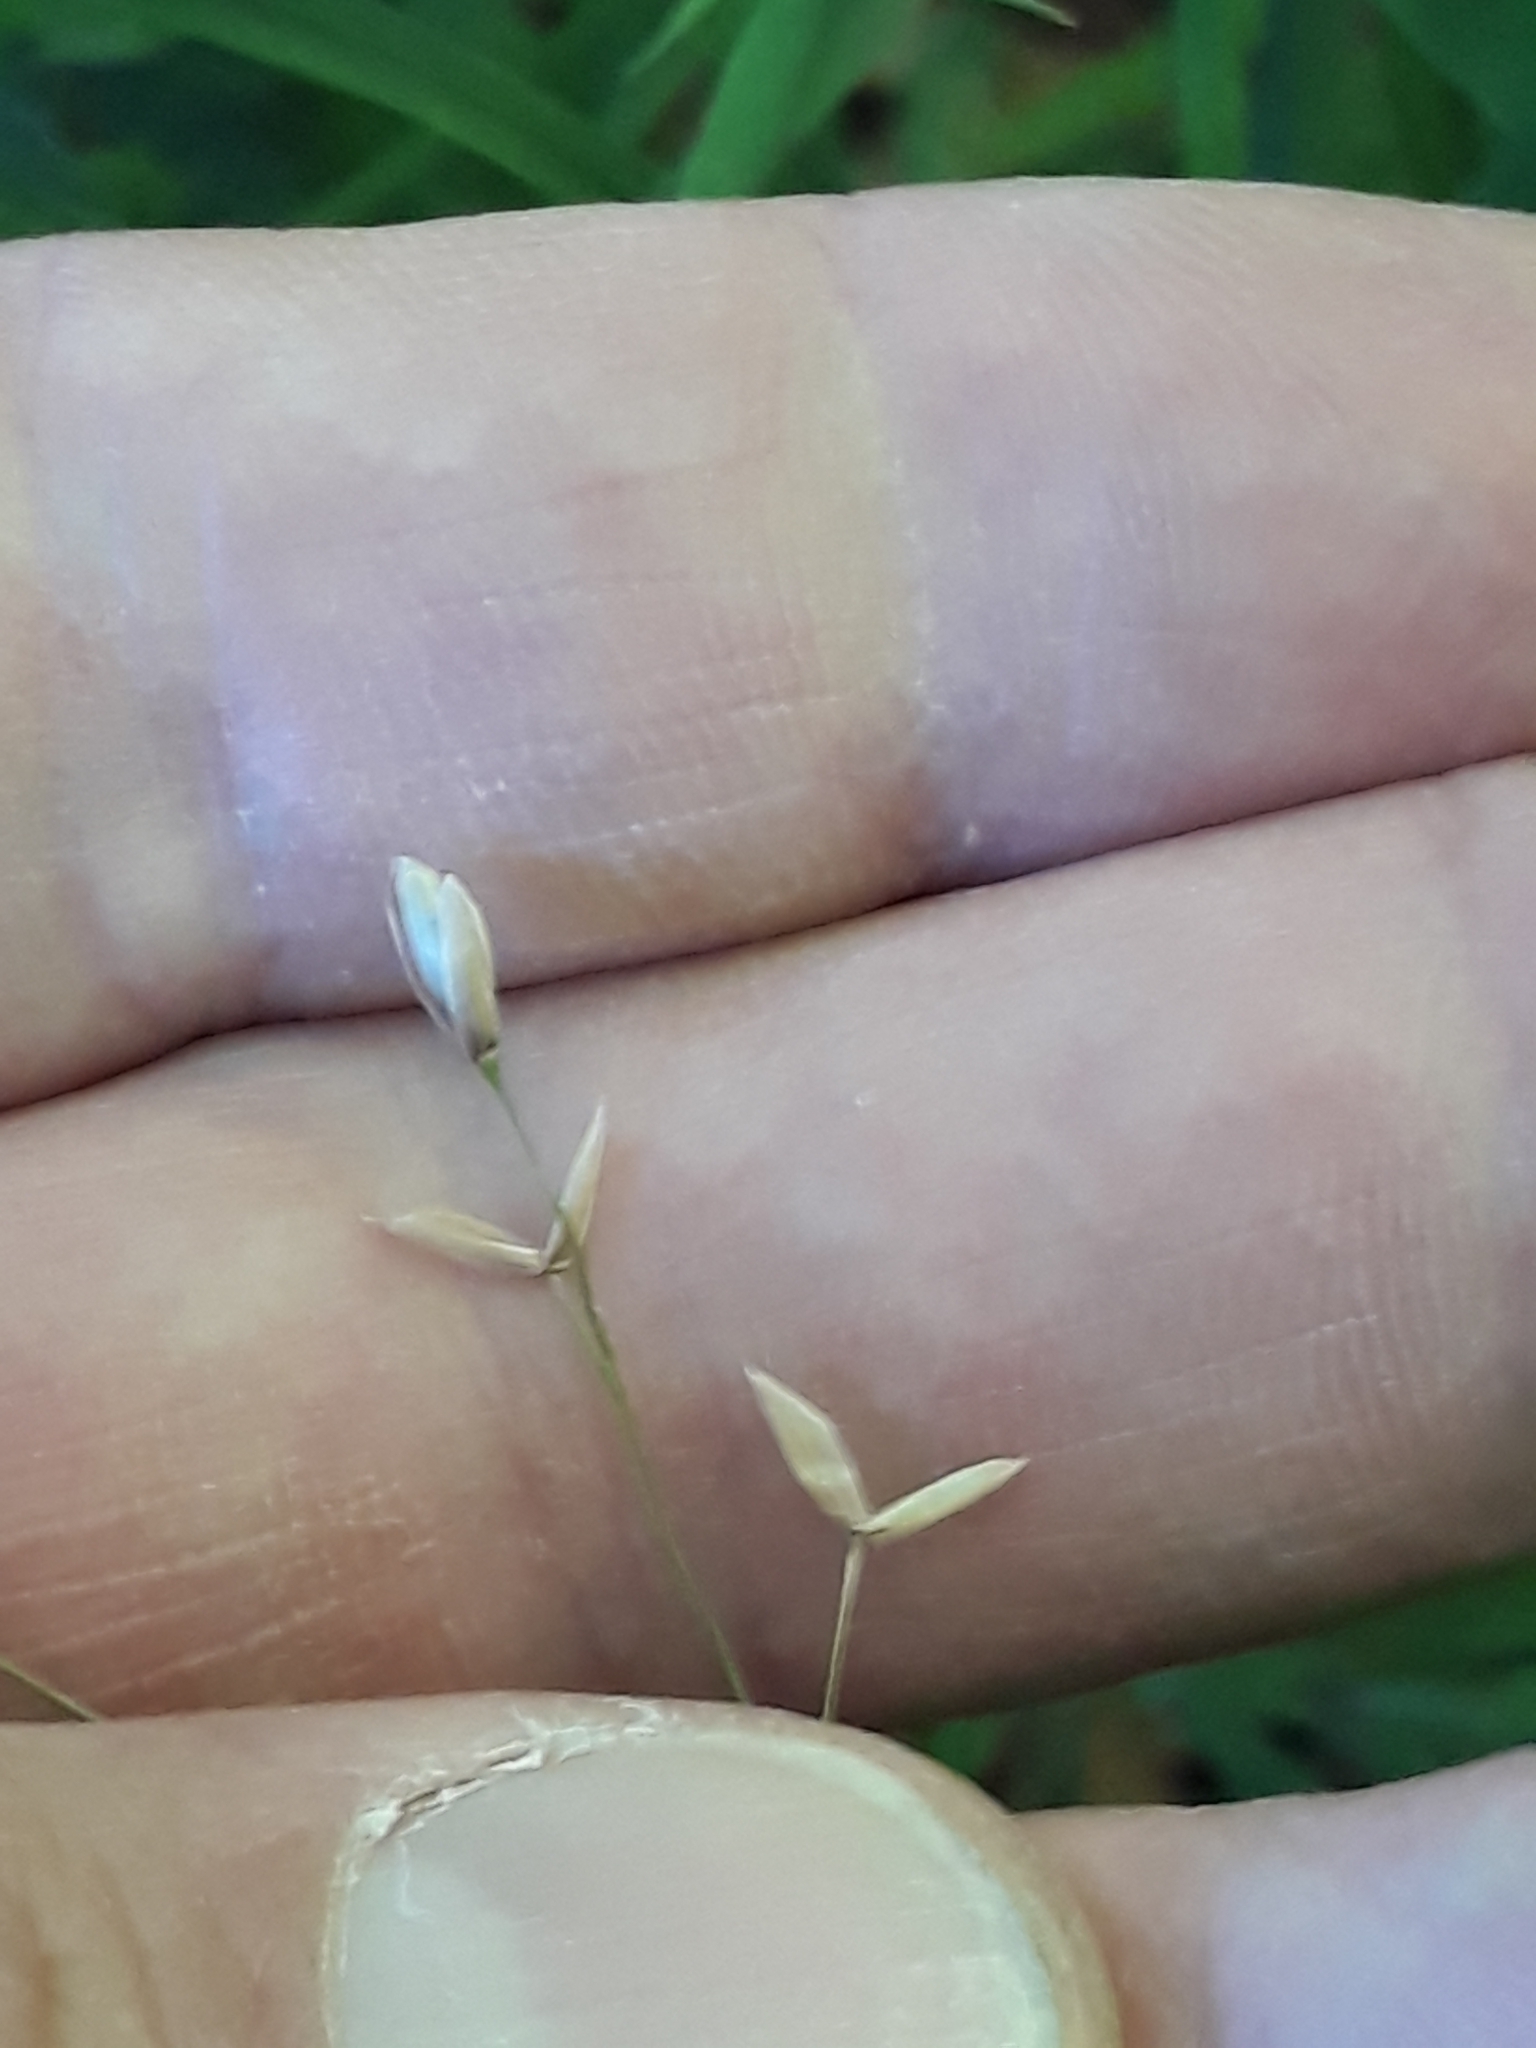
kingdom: Plantae
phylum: Tracheophyta
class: Liliopsida
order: Poales
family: Poaceae
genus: Melica
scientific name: Melica uniflora
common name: Wood melick
